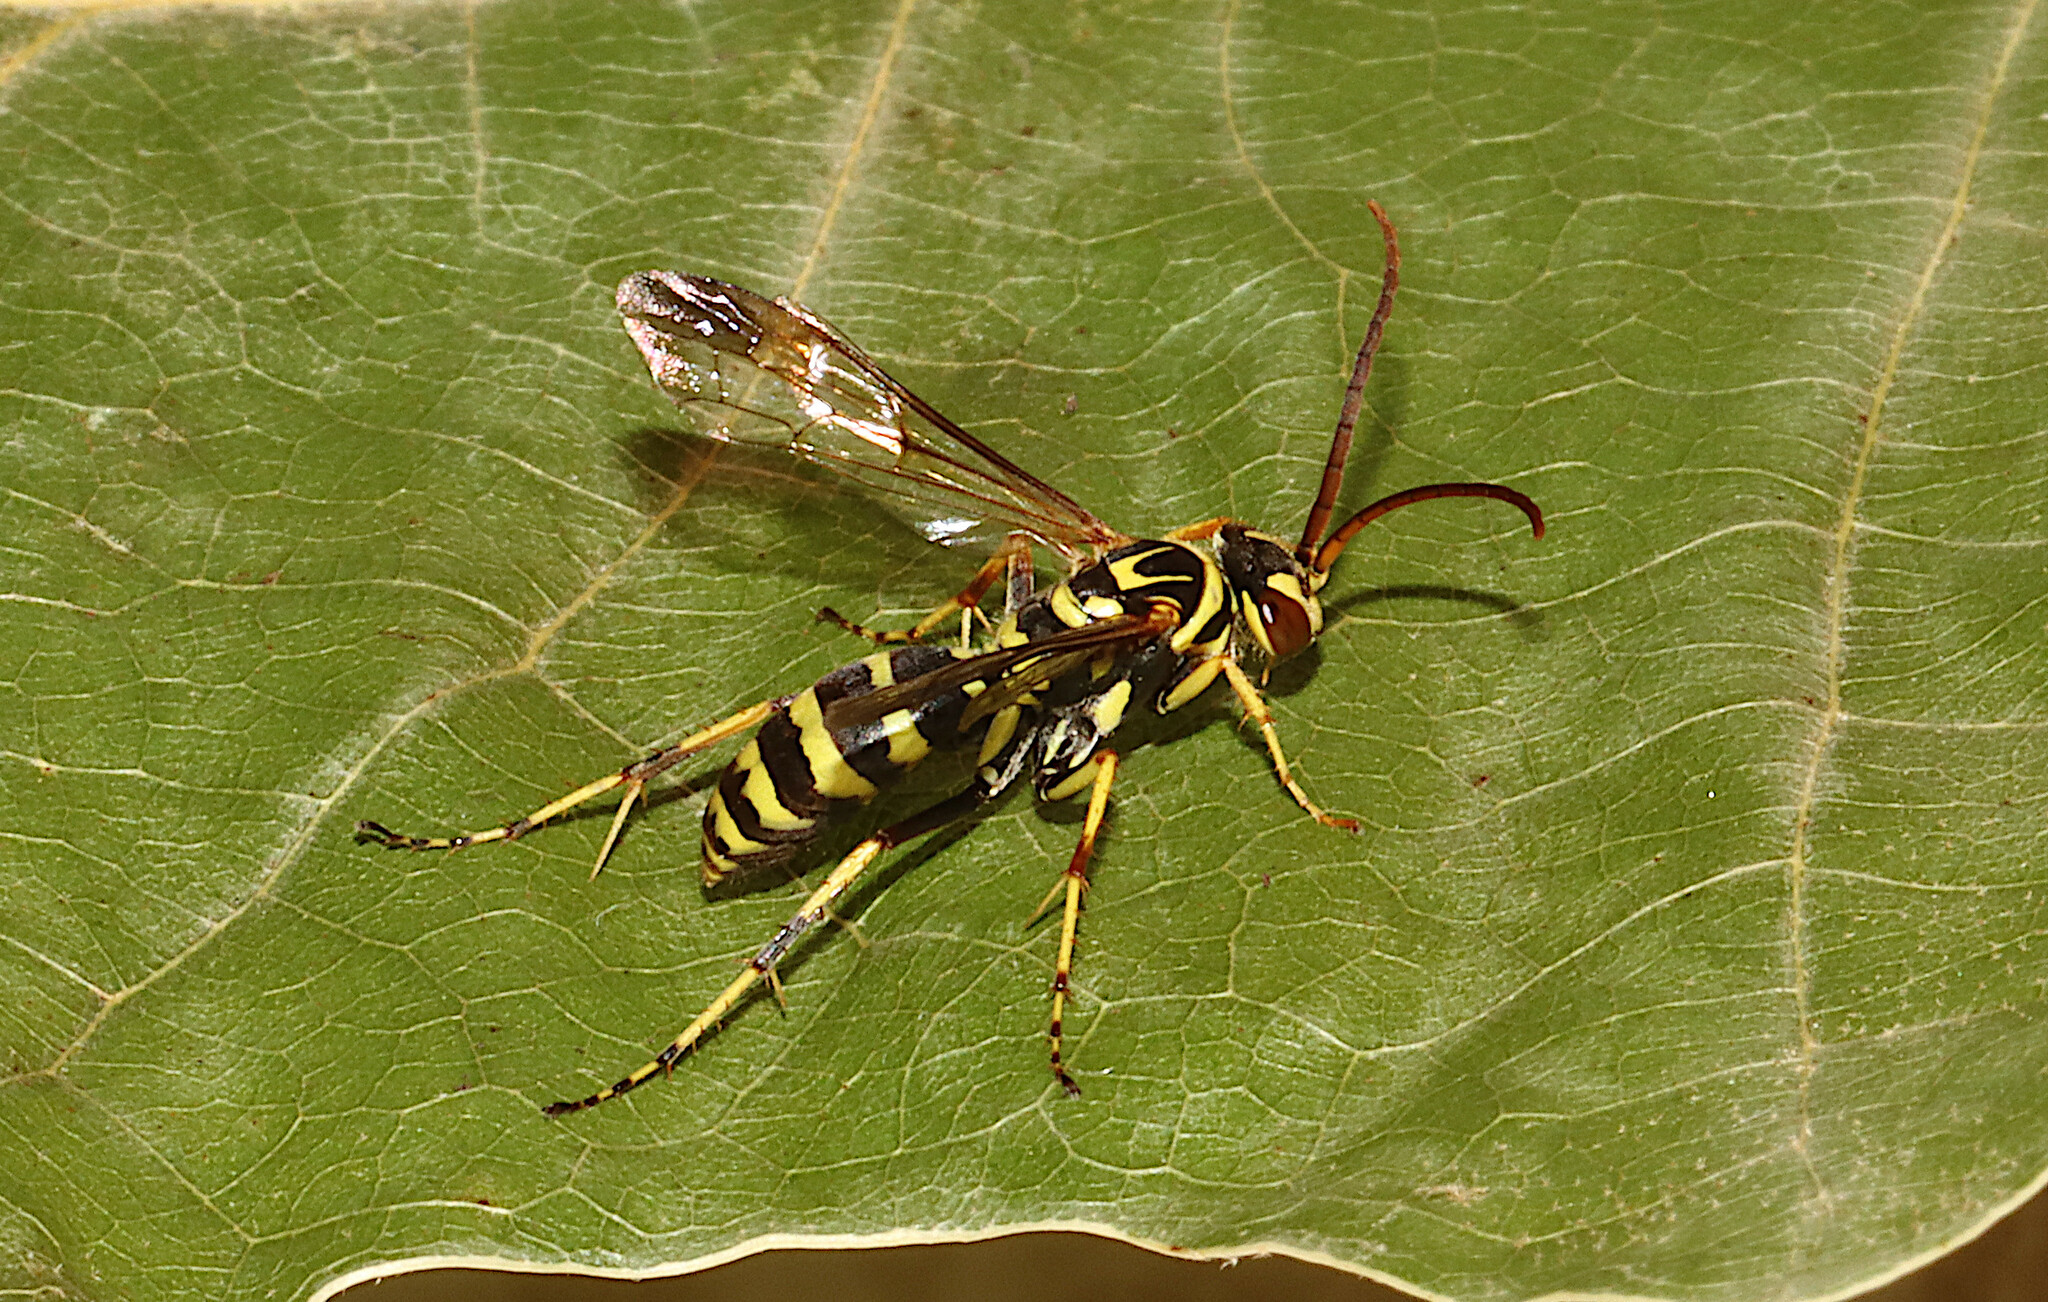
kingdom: Animalia
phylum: Arthropoda
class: Insecta
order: Hymenoptera
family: Pompilidae
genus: Poecilopompilus
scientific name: Poecilopompilus interruptus
